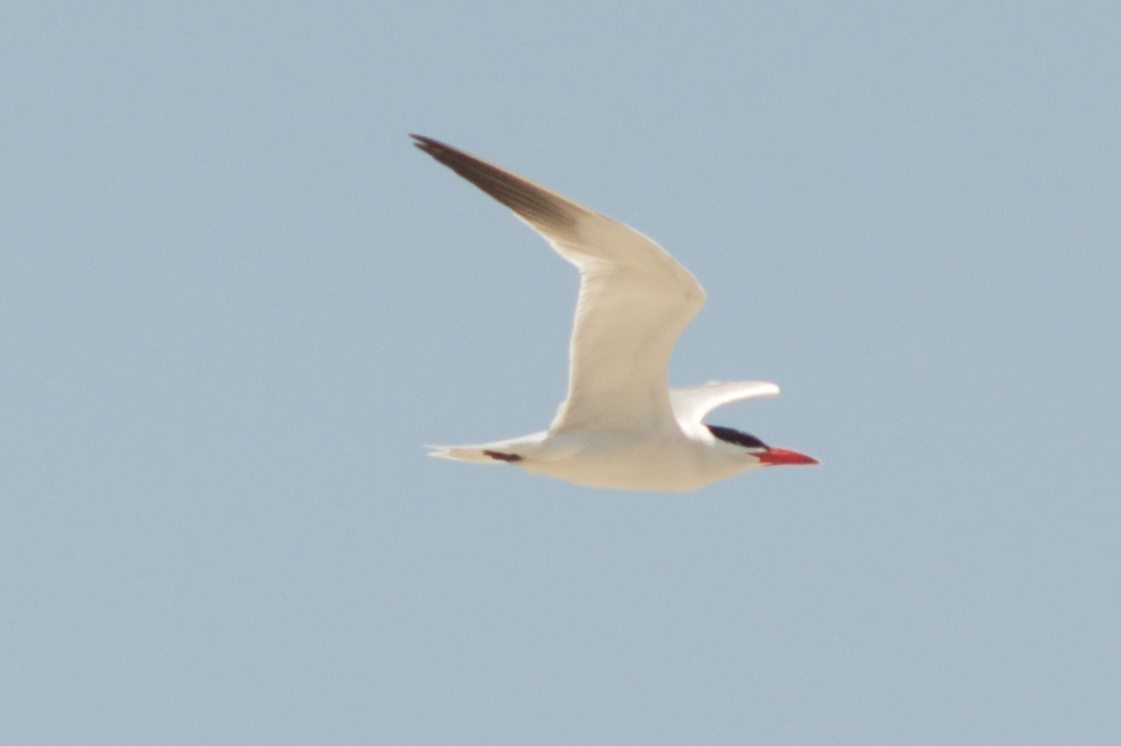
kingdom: Animalia
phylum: Chordata
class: Aves
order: Charadriiformes
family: Laridae
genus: Hydroprogne
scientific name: Hydroprogne caspia
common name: Caspian tern
